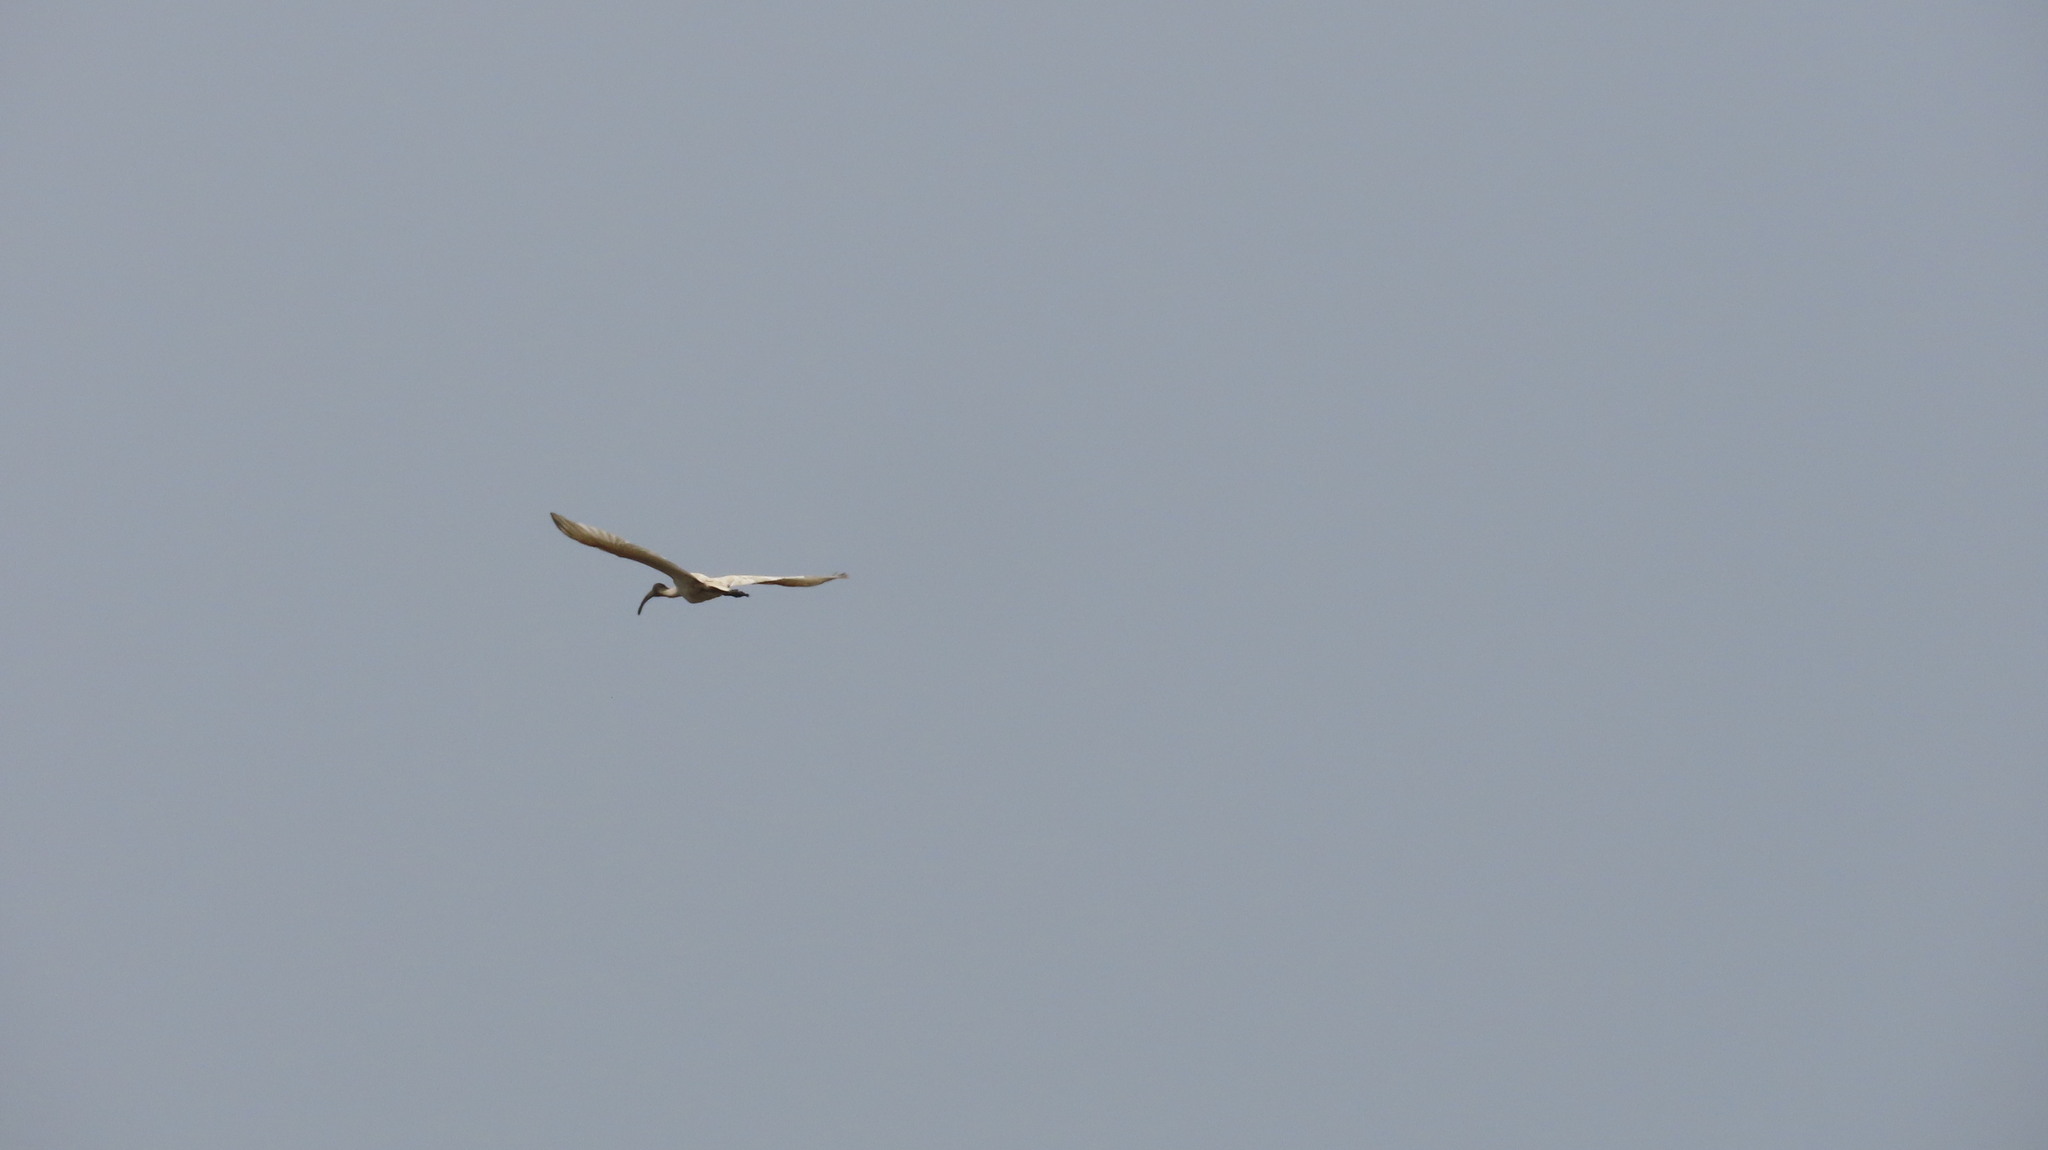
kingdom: Animalia
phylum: Chordata
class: Aves
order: Pelecaniformes
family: Threskiornithidae
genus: Threskiornis
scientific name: Threskiornis melanocephalus
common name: Black-headed ibis
